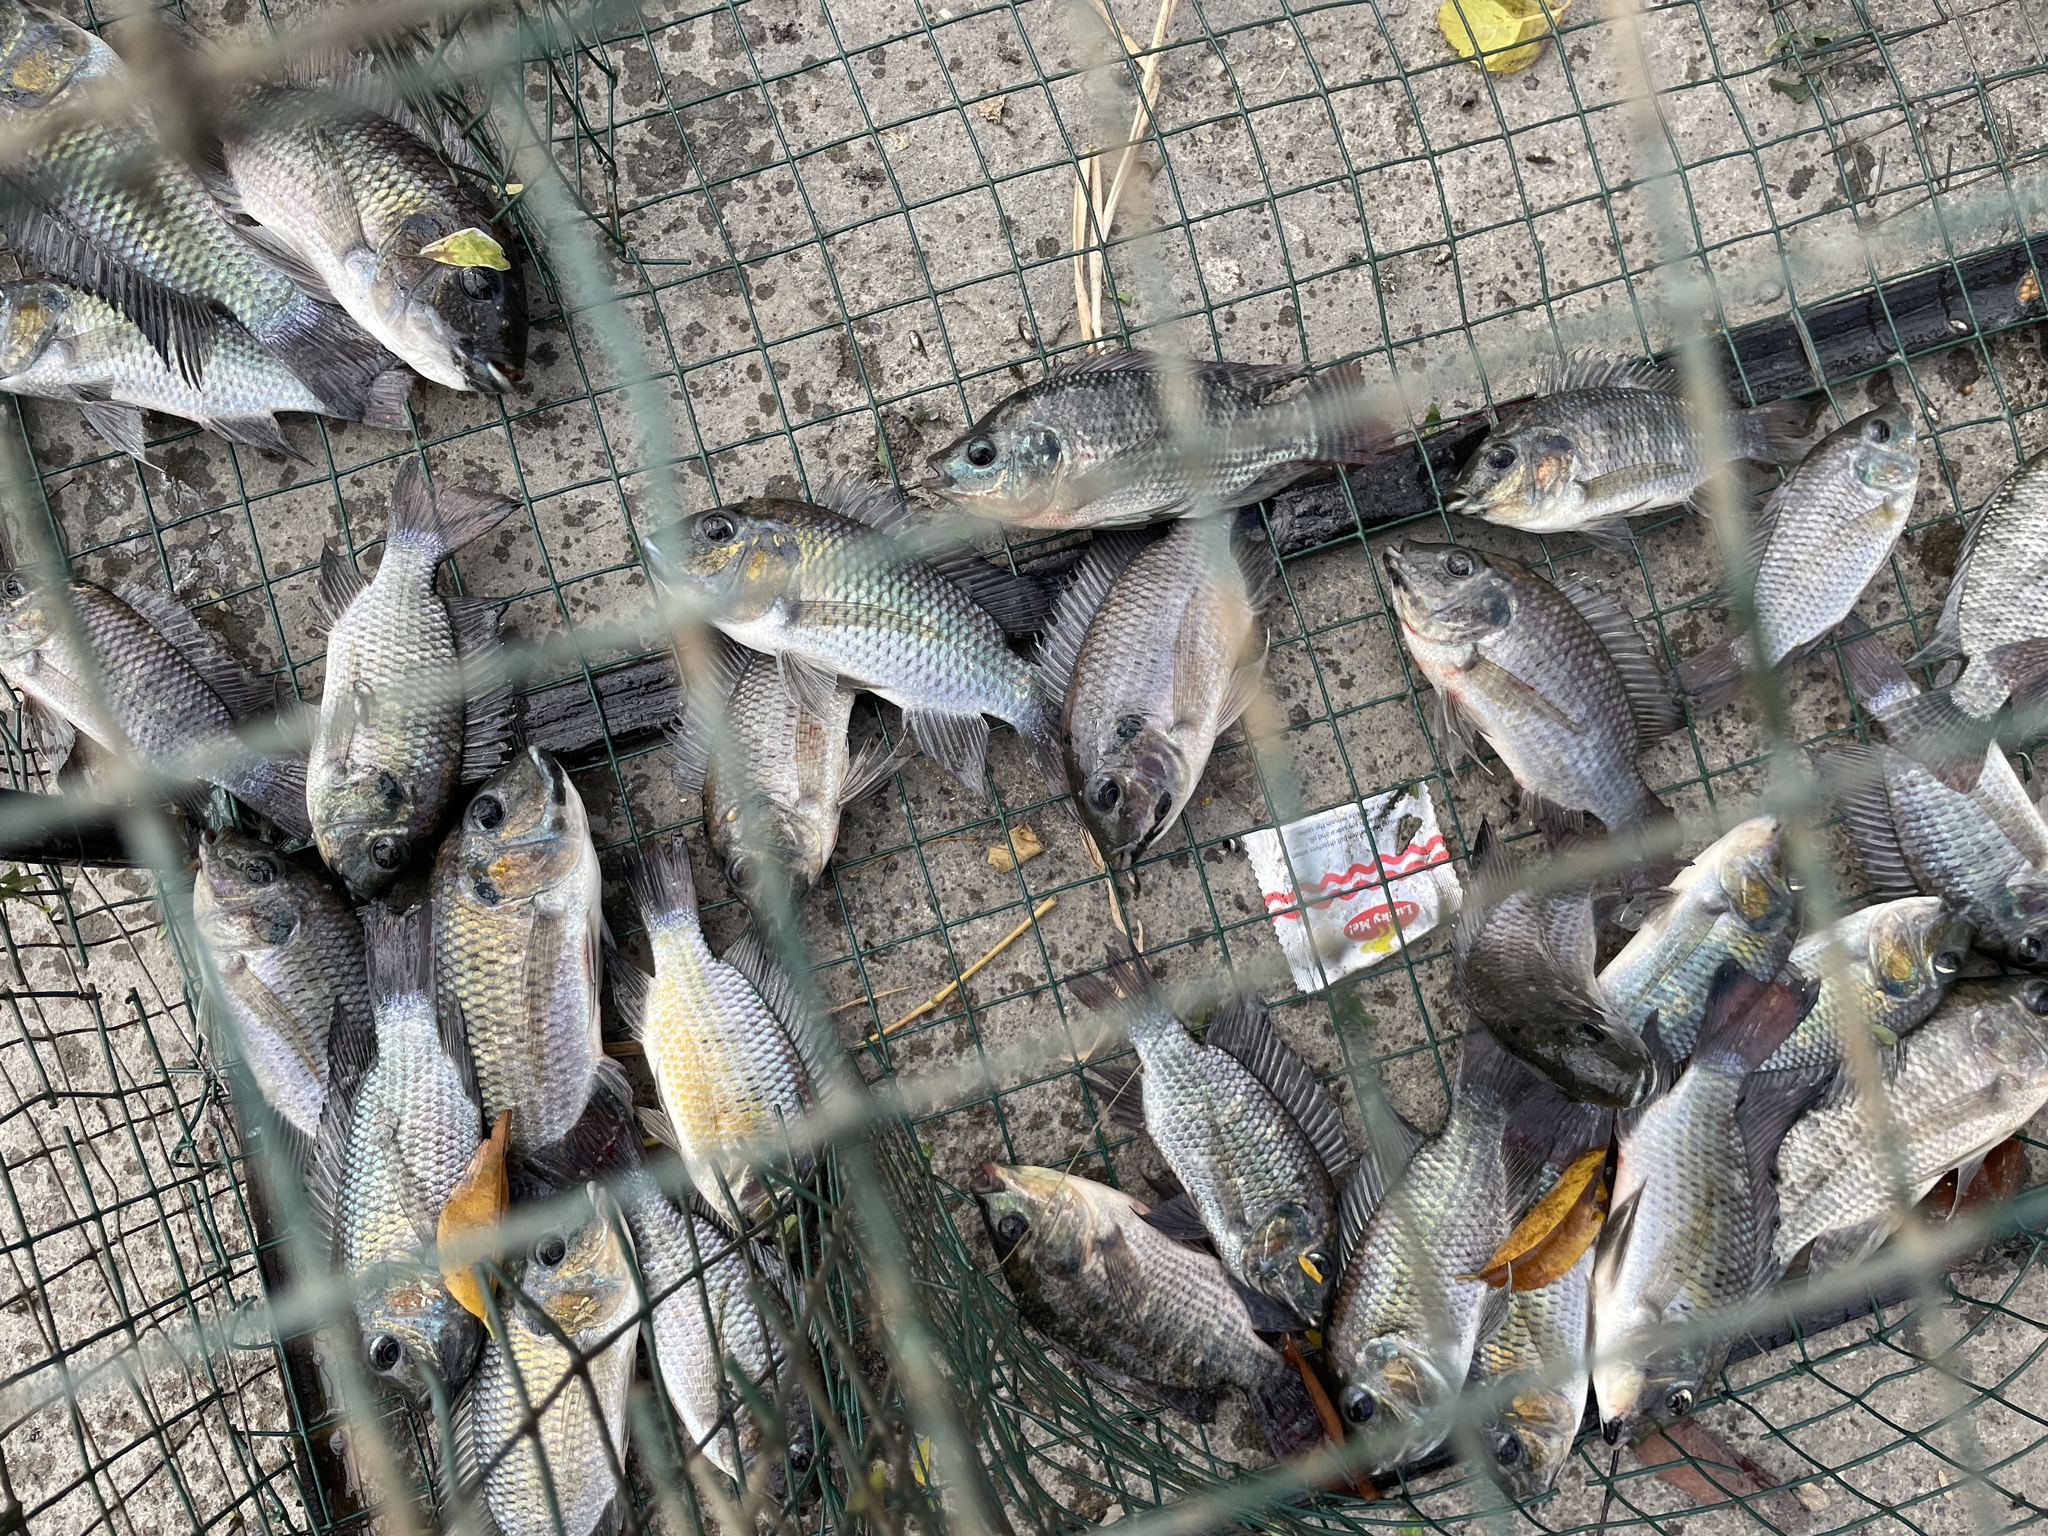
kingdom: Animalia
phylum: Chordata
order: Perciformes
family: Cichlidae
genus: Oreochromis
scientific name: Oreochromis niloticus
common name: Nile tilapia
